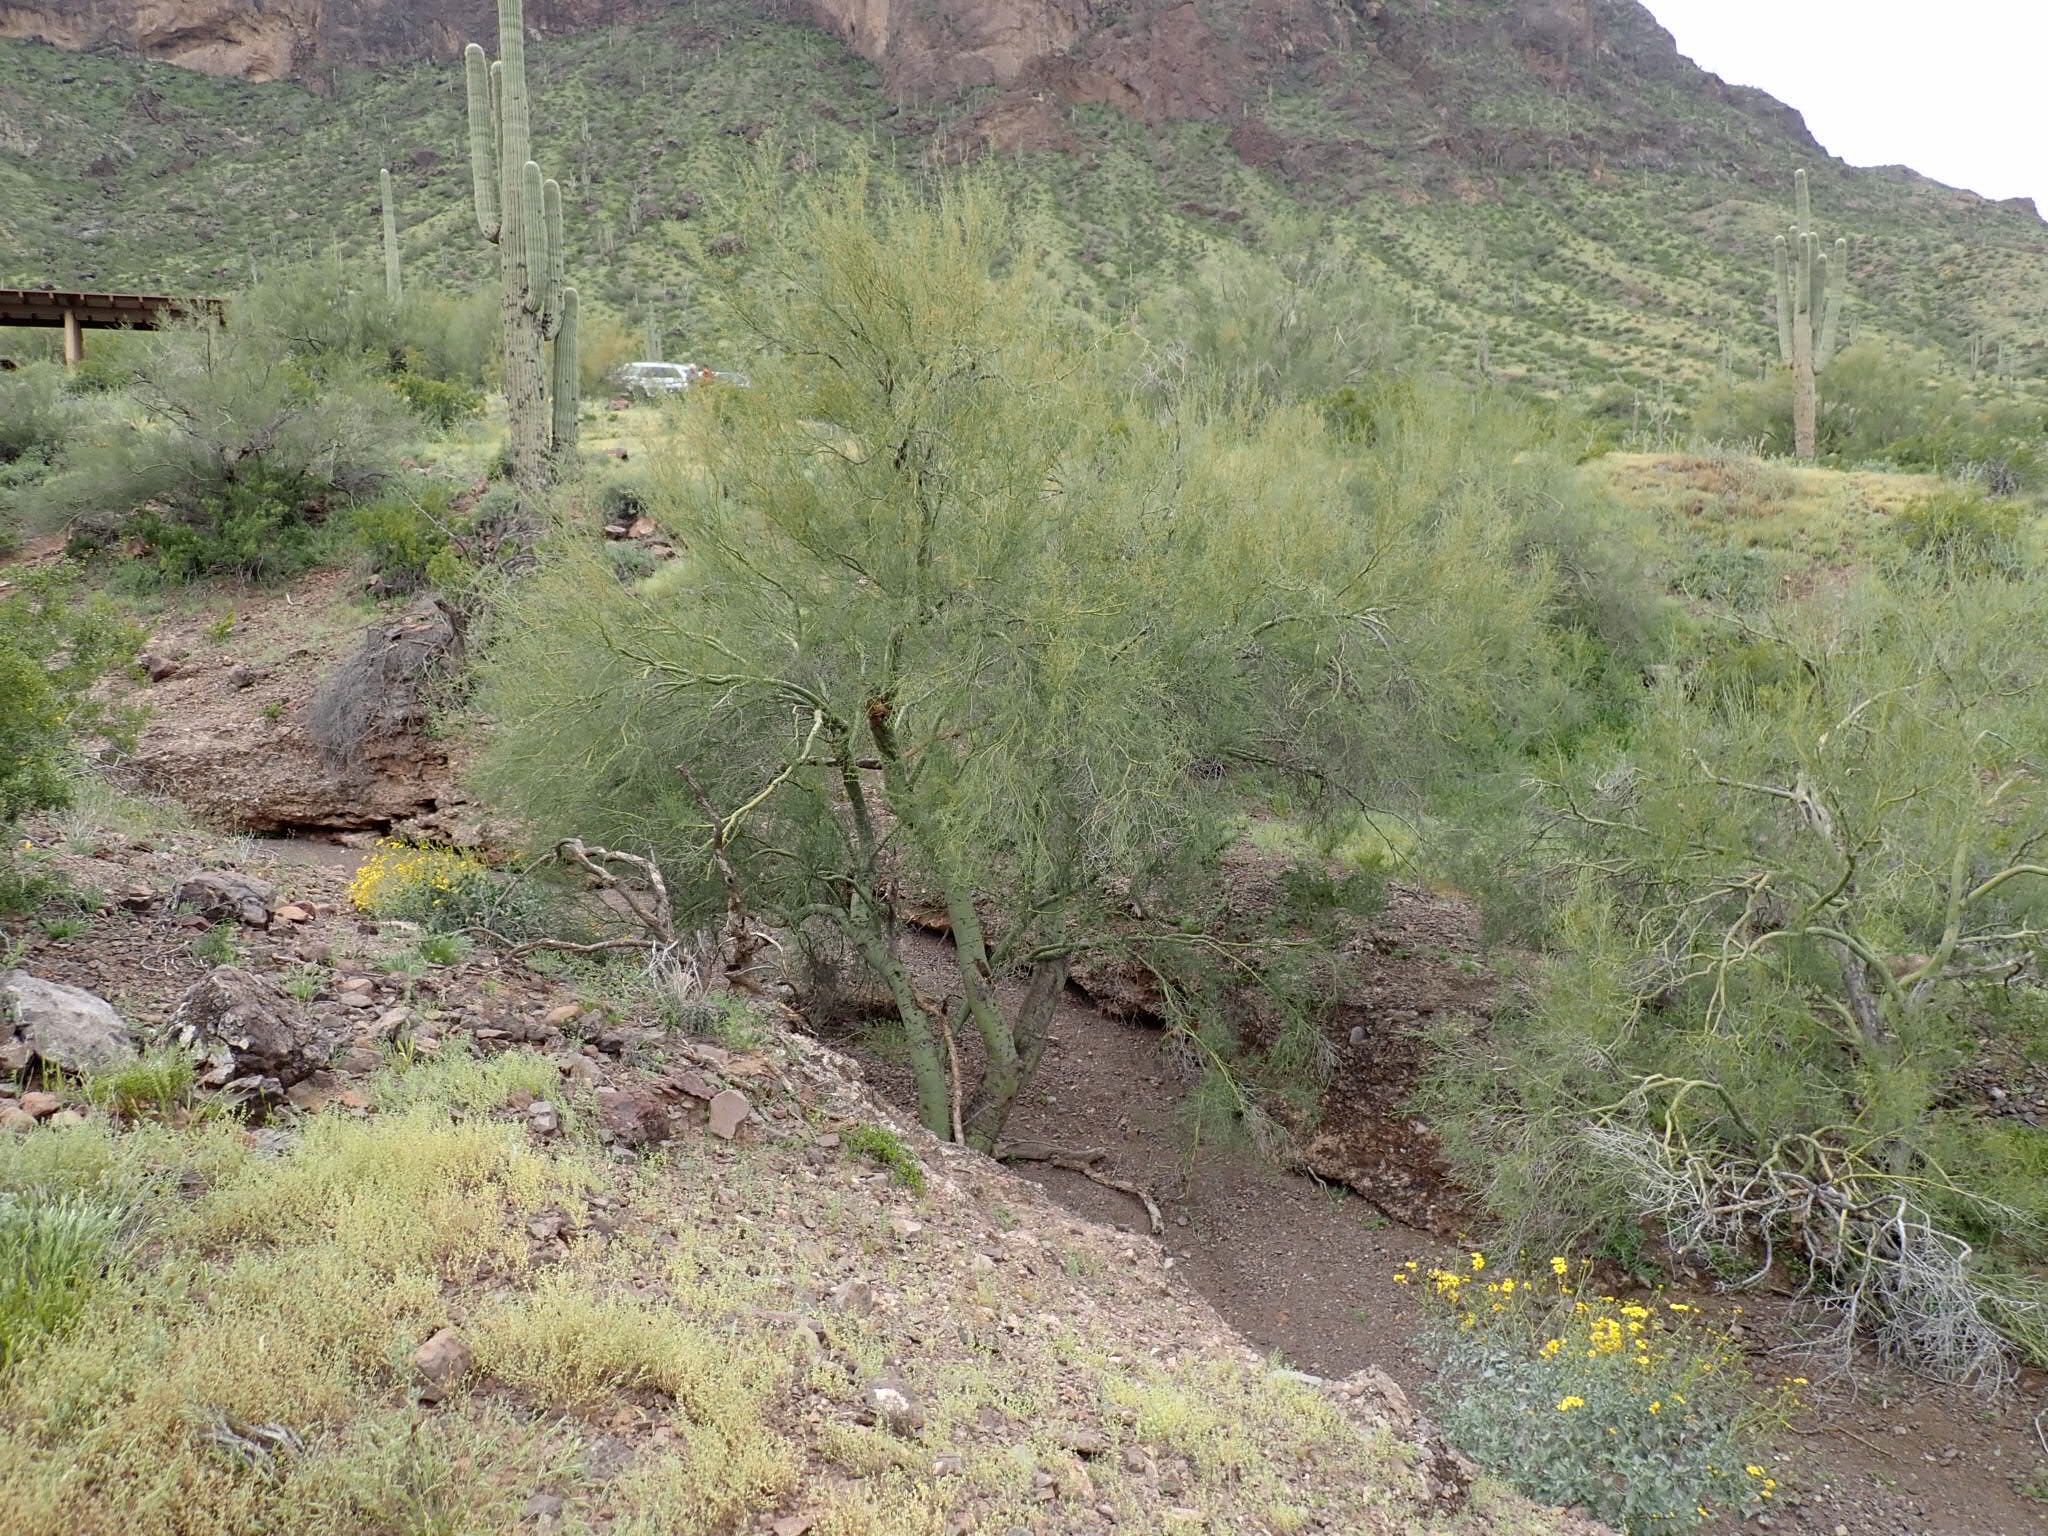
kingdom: Plantae
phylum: Tracheophyta
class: Magnoliopsida
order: Fabales
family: Fabaceae
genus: Parkinsonia
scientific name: Parkinsonia microphylla
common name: Yellow paloverde
